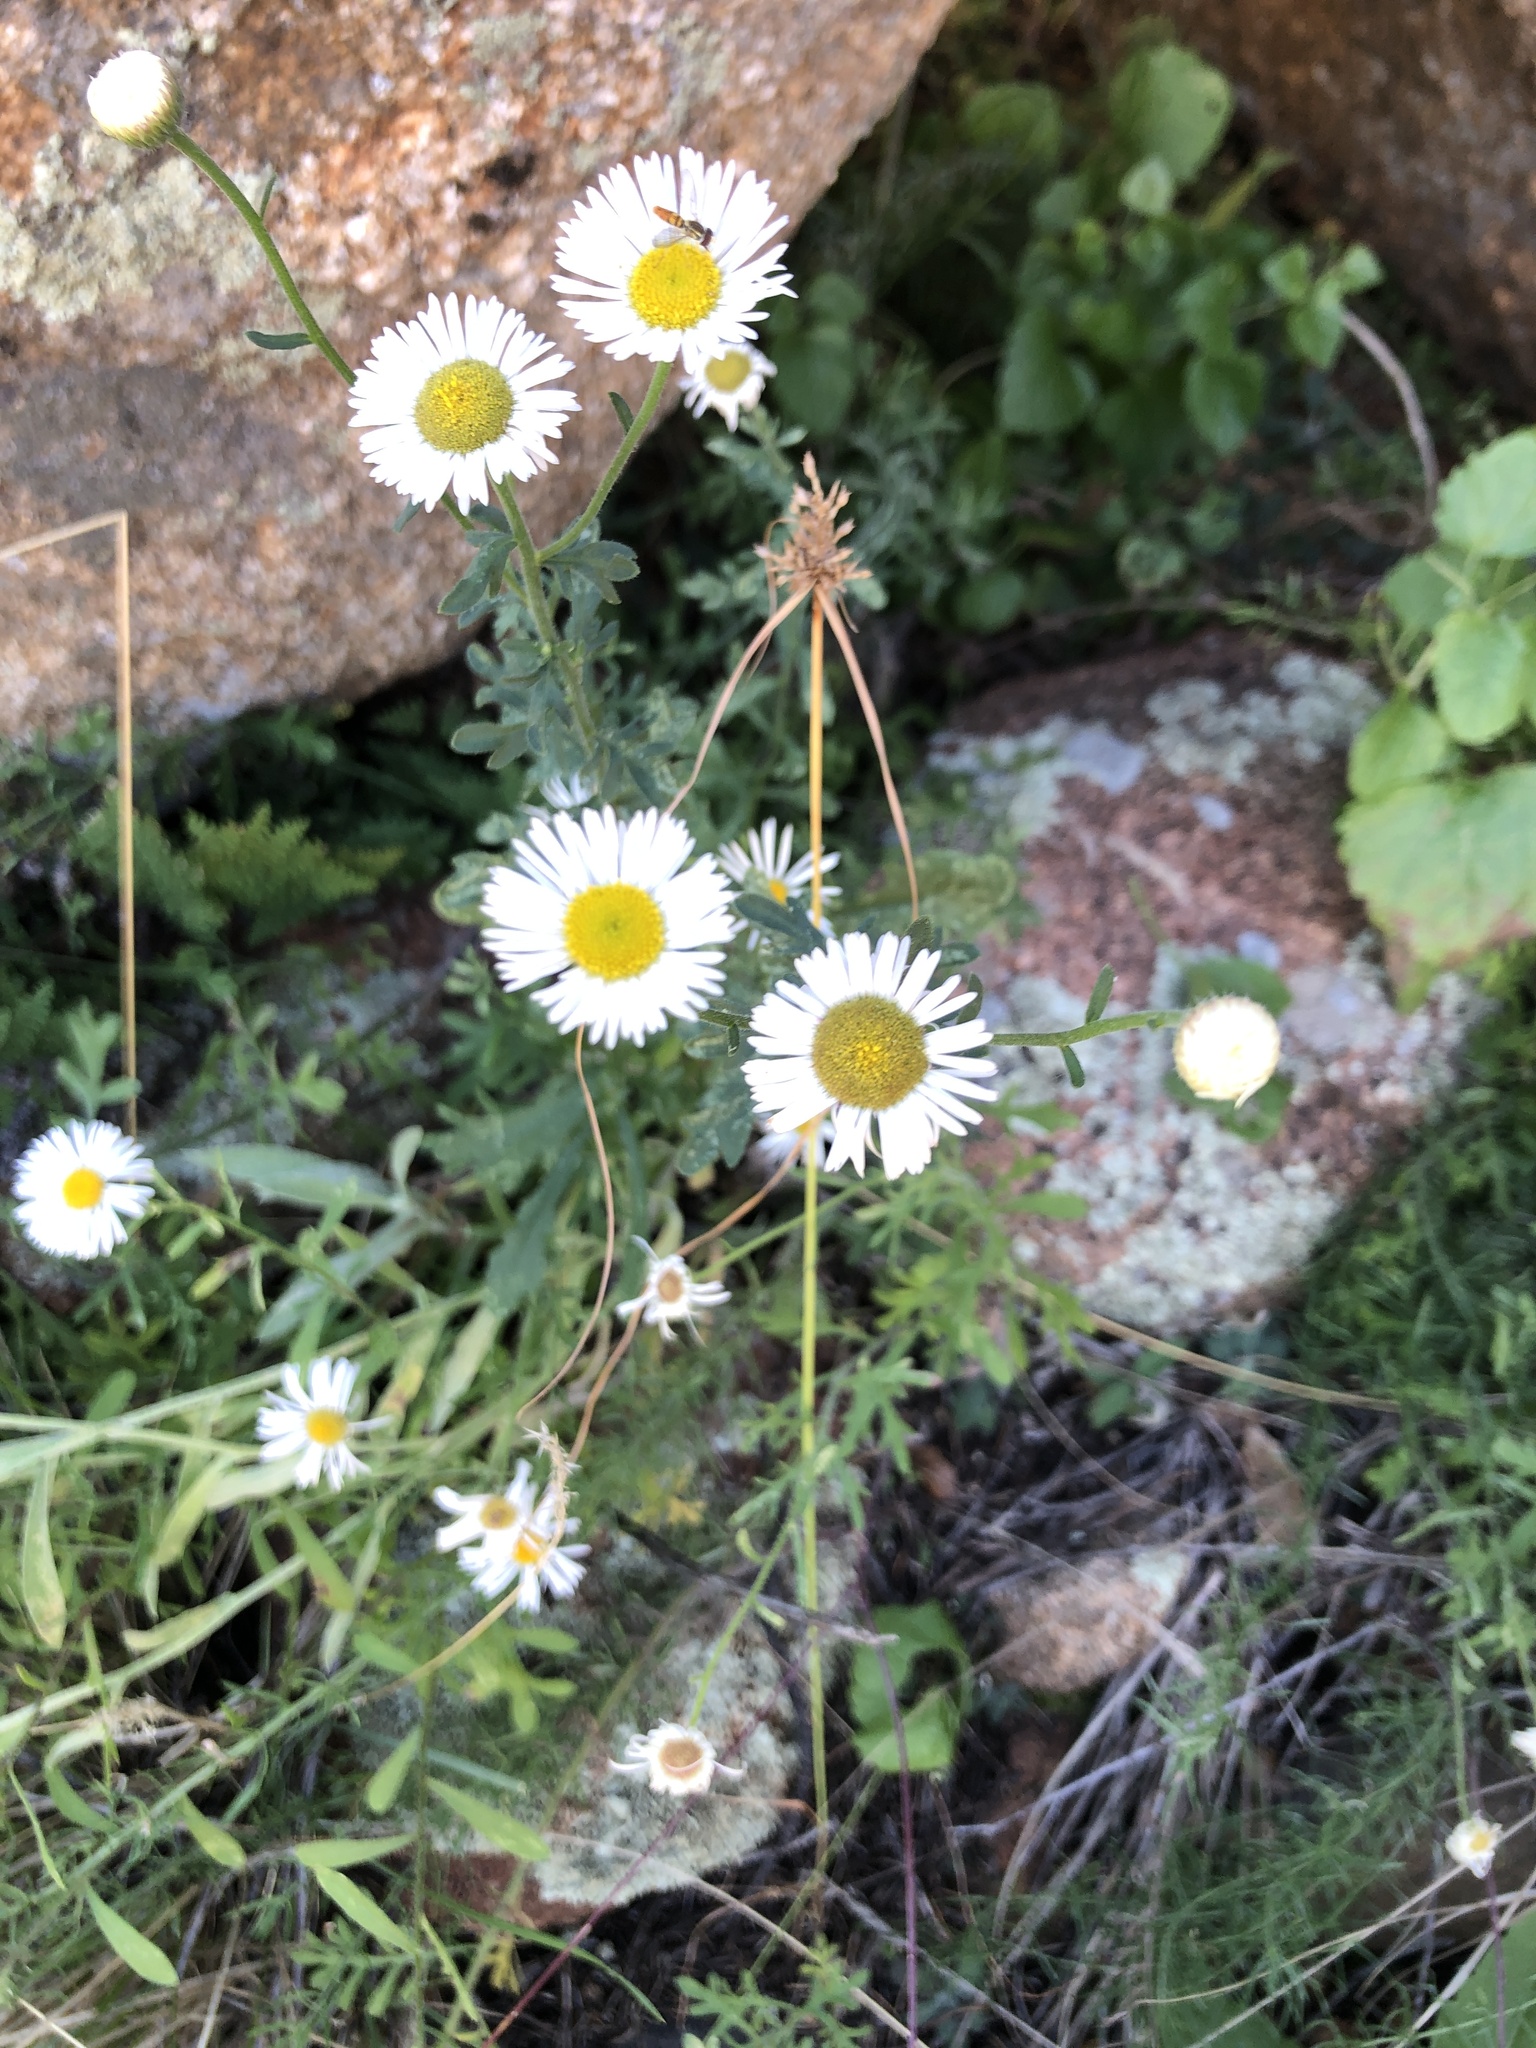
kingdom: Plantae
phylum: Tracheophyta
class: Magnoliopsida
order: Asterales
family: Asteraceae
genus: Erigeron
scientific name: Erigeron divergens
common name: Diffuse fleabane
